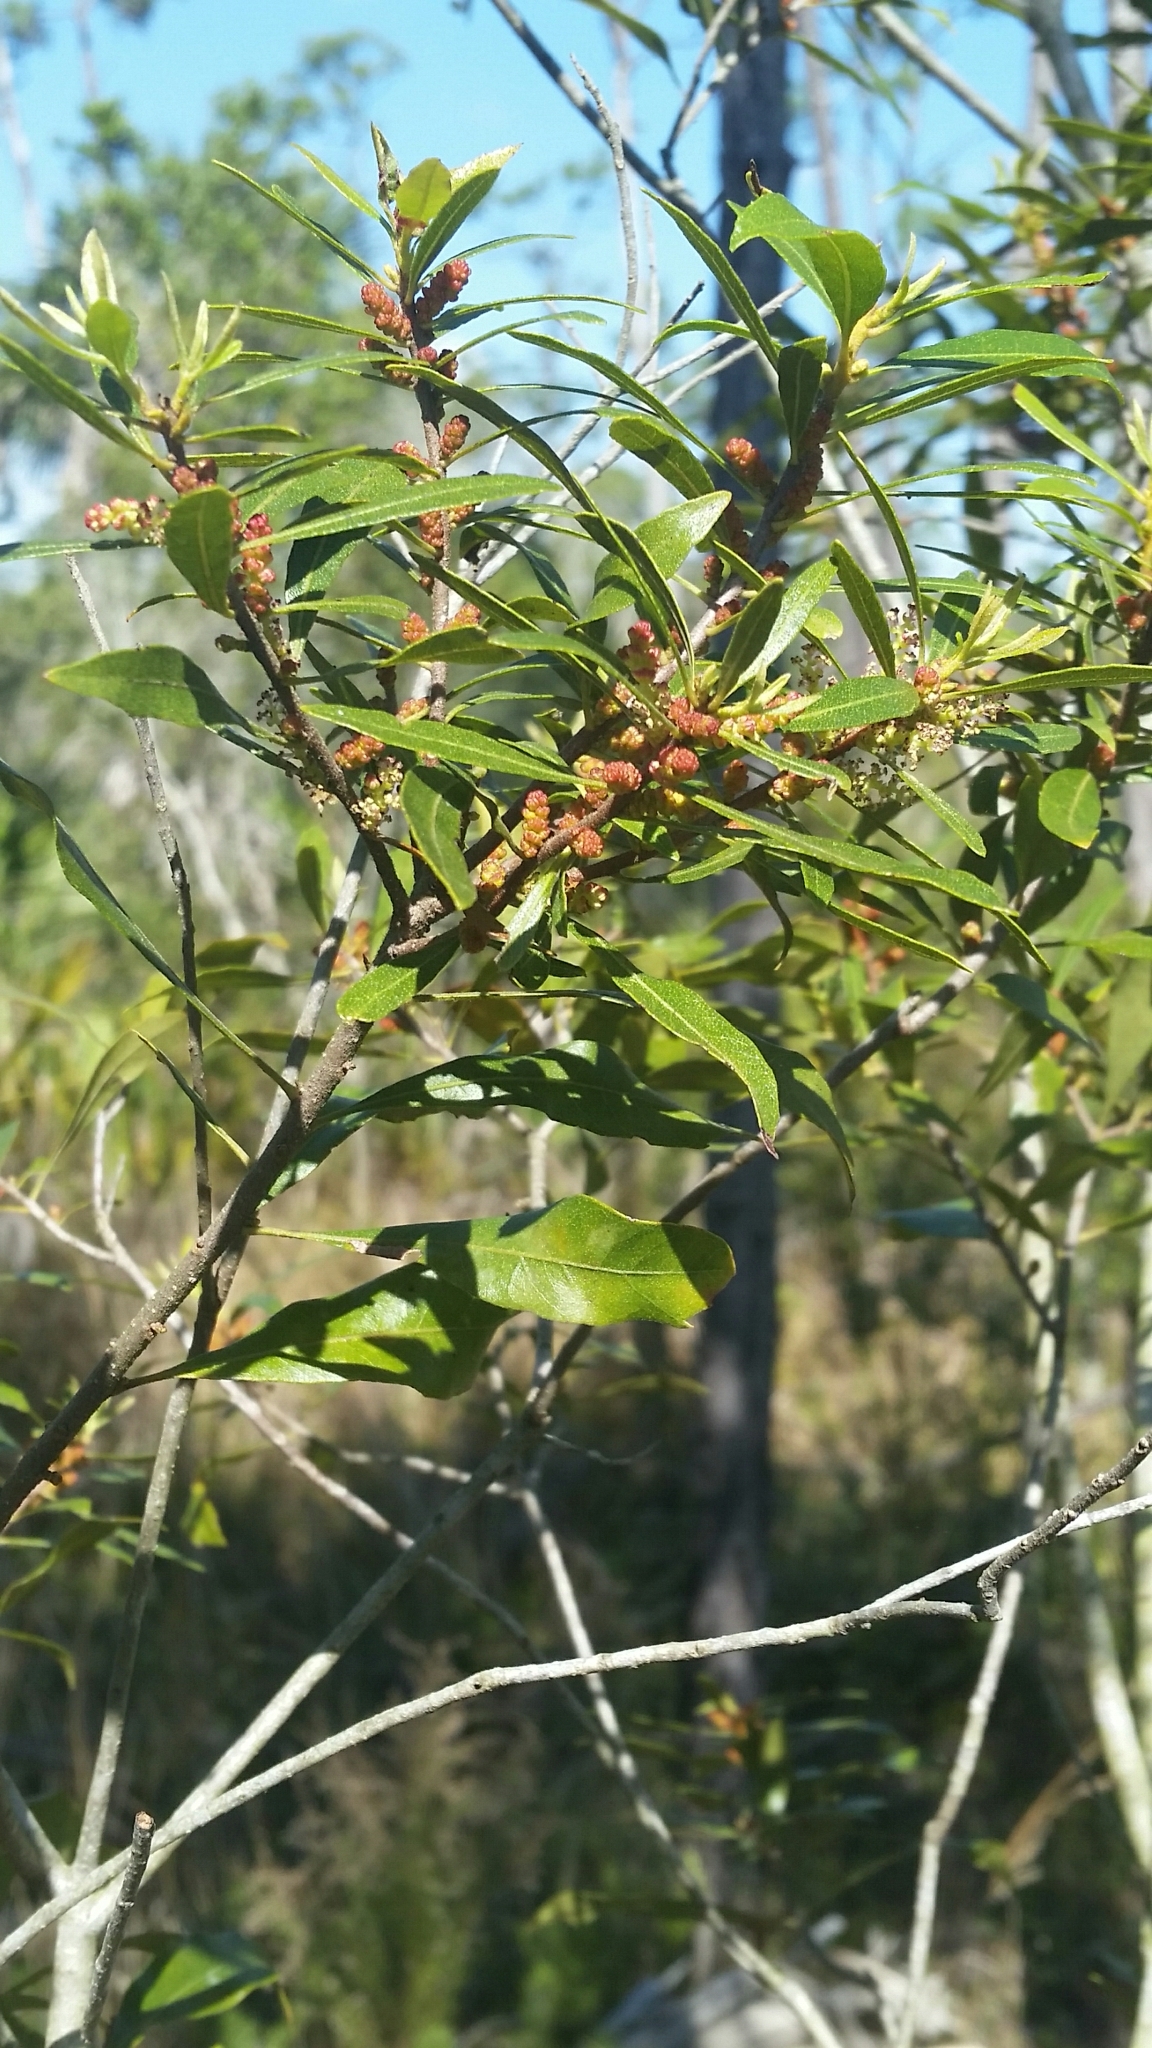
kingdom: Plantae
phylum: Tracheophyta
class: Magnoliopsida
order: Fagales
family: Myricaceae
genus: Morella
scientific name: Morella cerifera
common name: Wax myrtle
